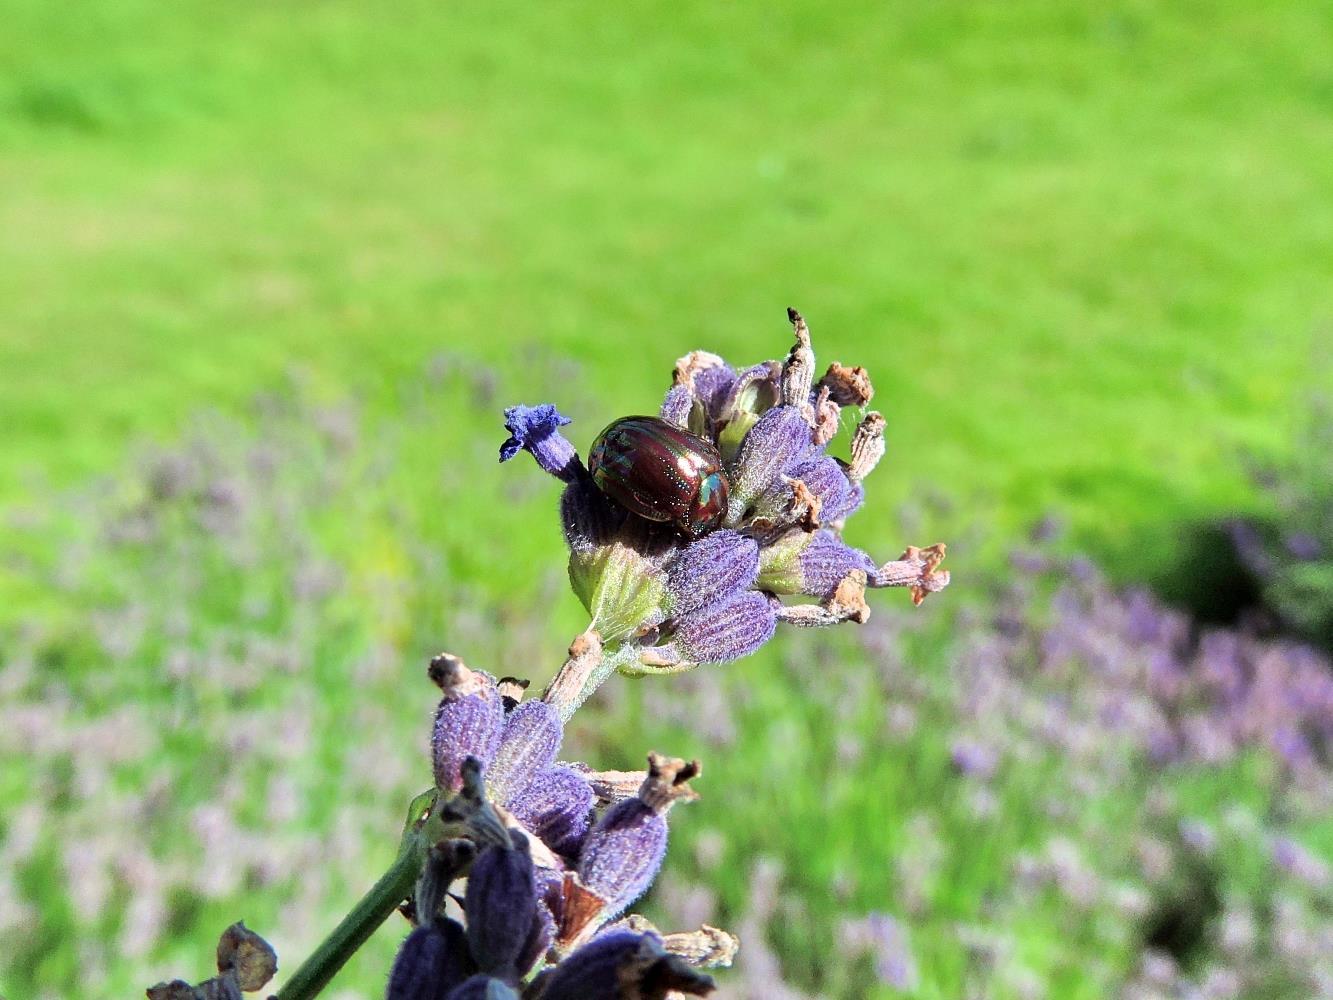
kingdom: Animalia
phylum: Arthropoda
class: Insecta
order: Coleoptera
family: Chrysomelidae
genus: Chrysolina
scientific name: Chrysolina americana
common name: Rosemary beetle
